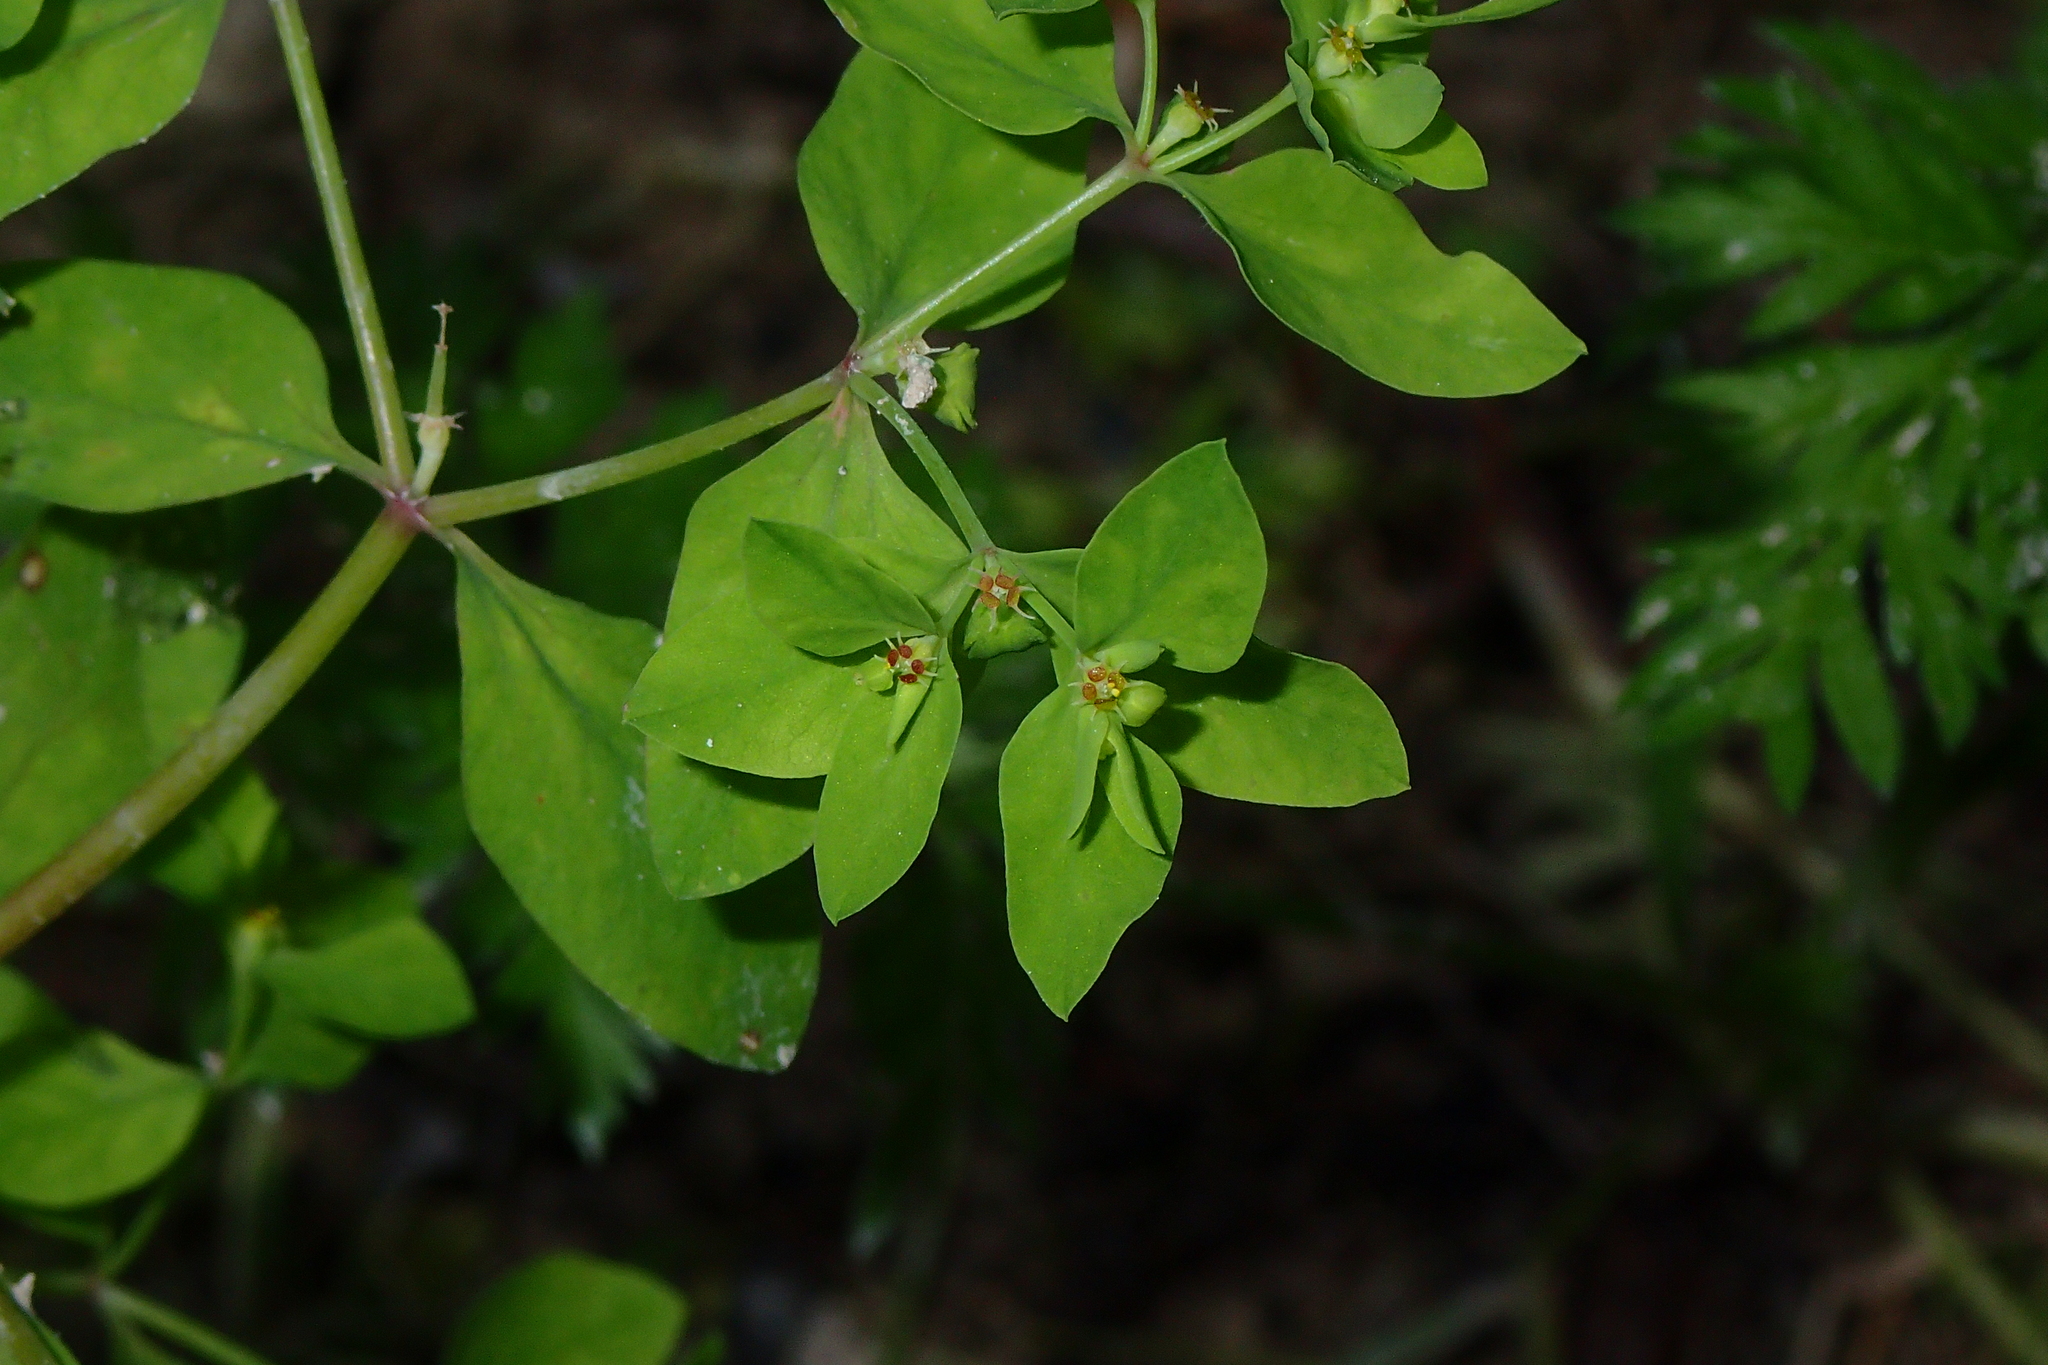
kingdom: Plantae
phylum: Tracheophyta
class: Magnoliopsida
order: Malpighiales
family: Euphorbiaceae
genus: Euphorbia
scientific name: Euphorbia peplus
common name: Petty spurge
